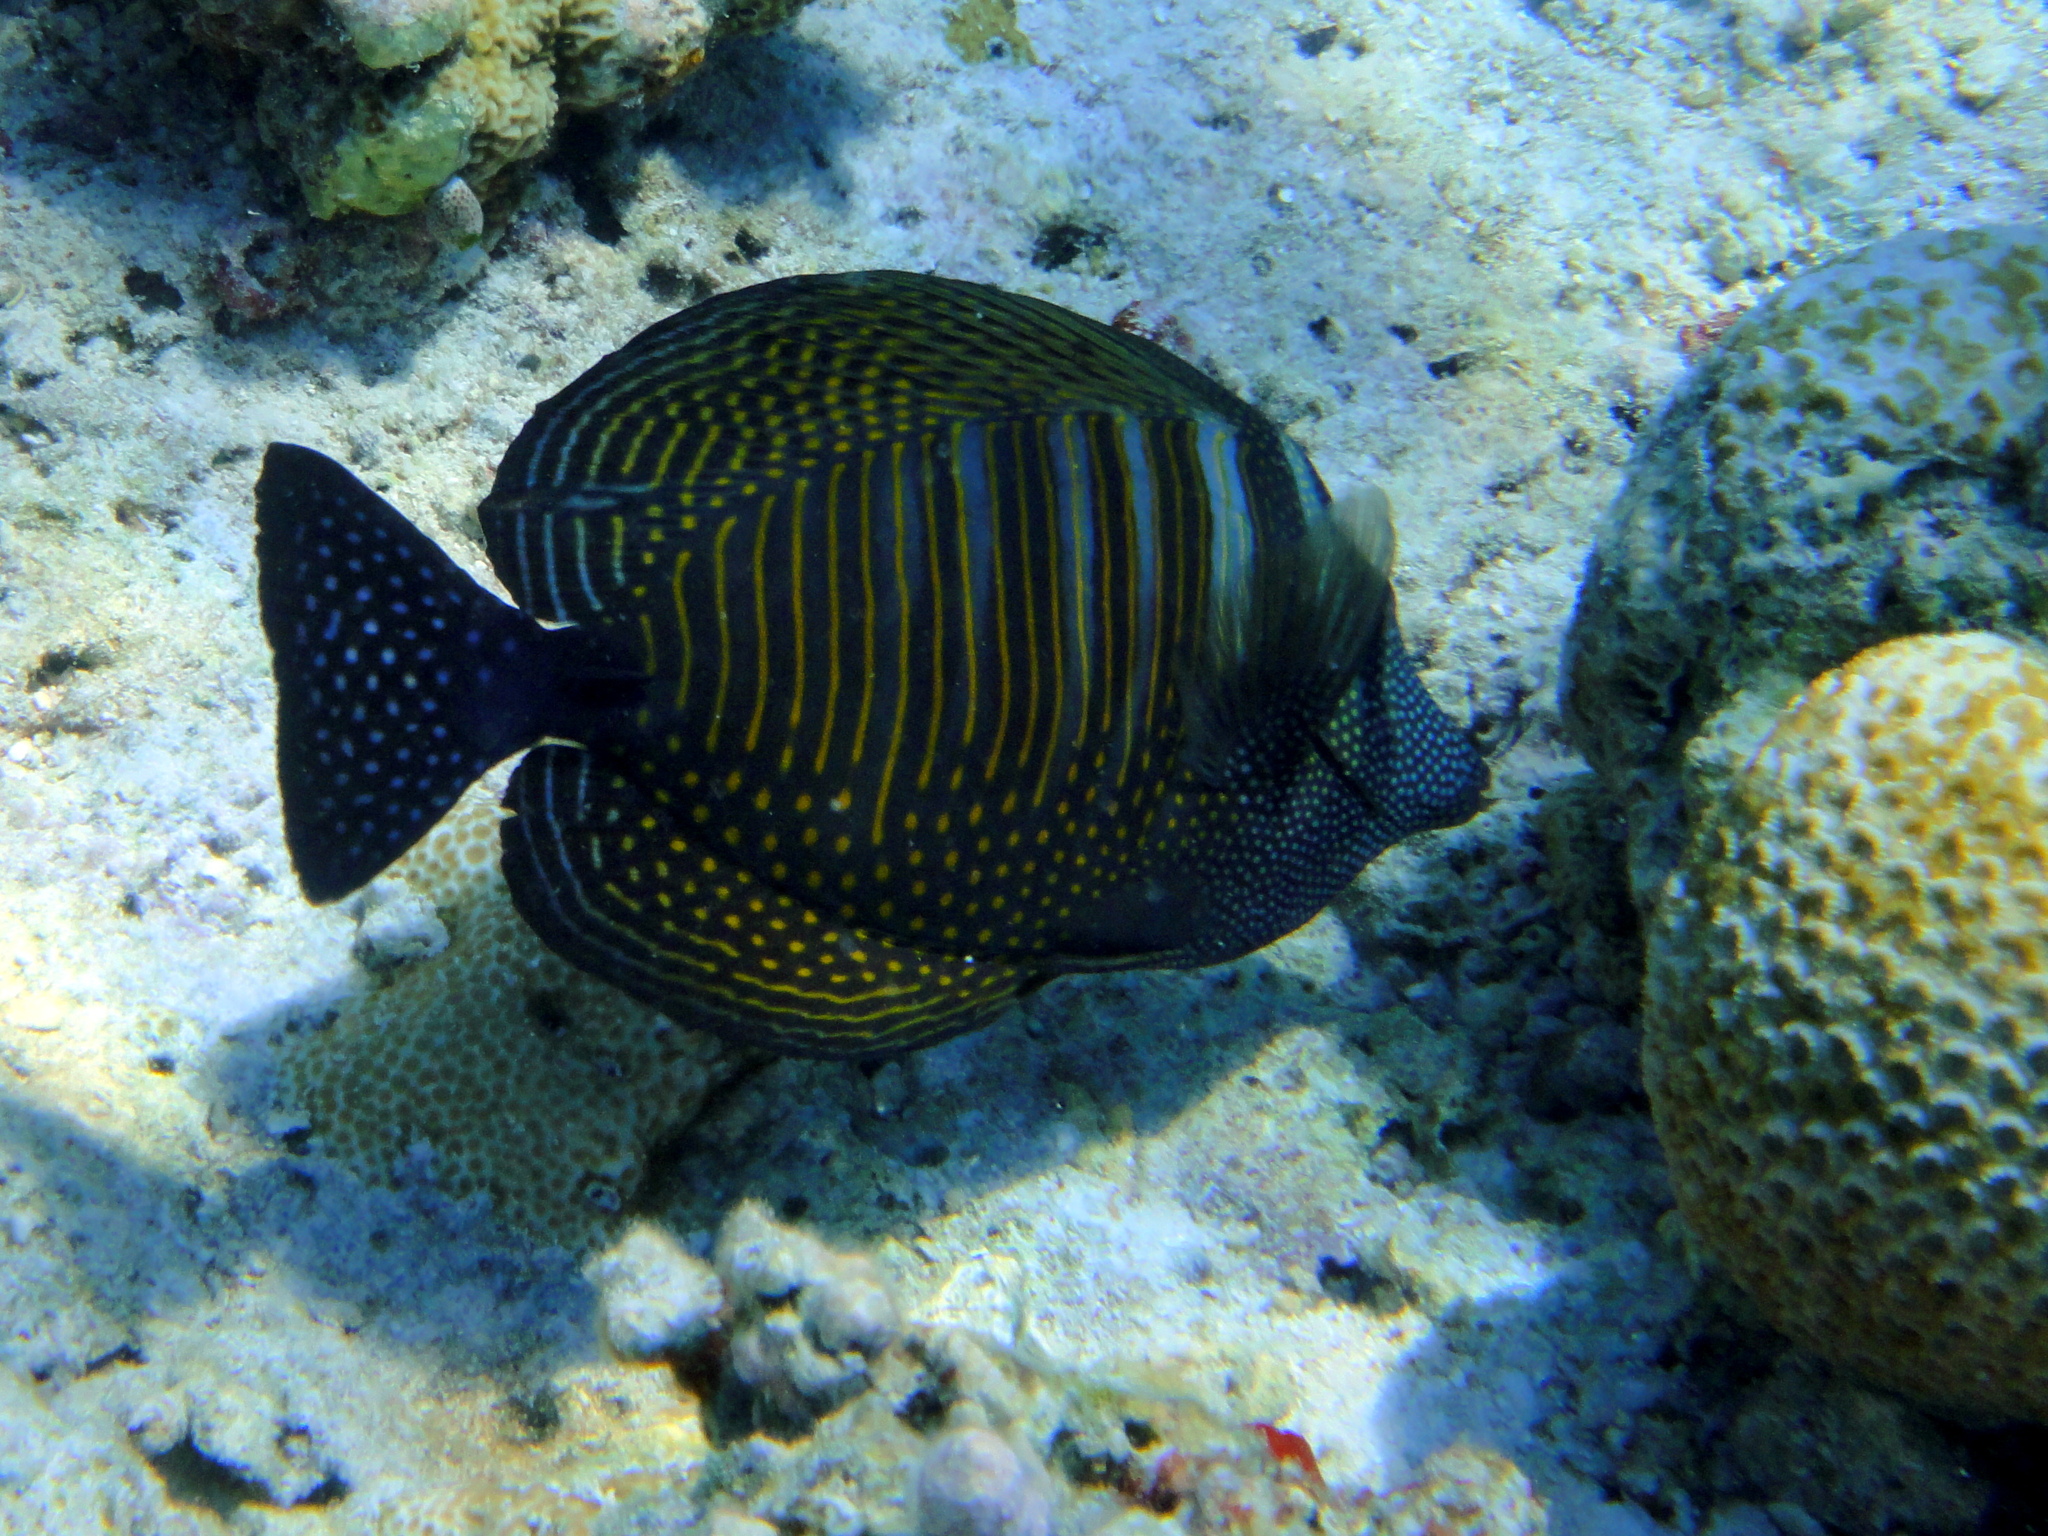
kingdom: Animalia
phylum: Chordata
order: Perciformes
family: Acanthuridae
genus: Zebrasoma
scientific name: Zebrasoma desjardinii
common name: Desjardin's sailfin tang
